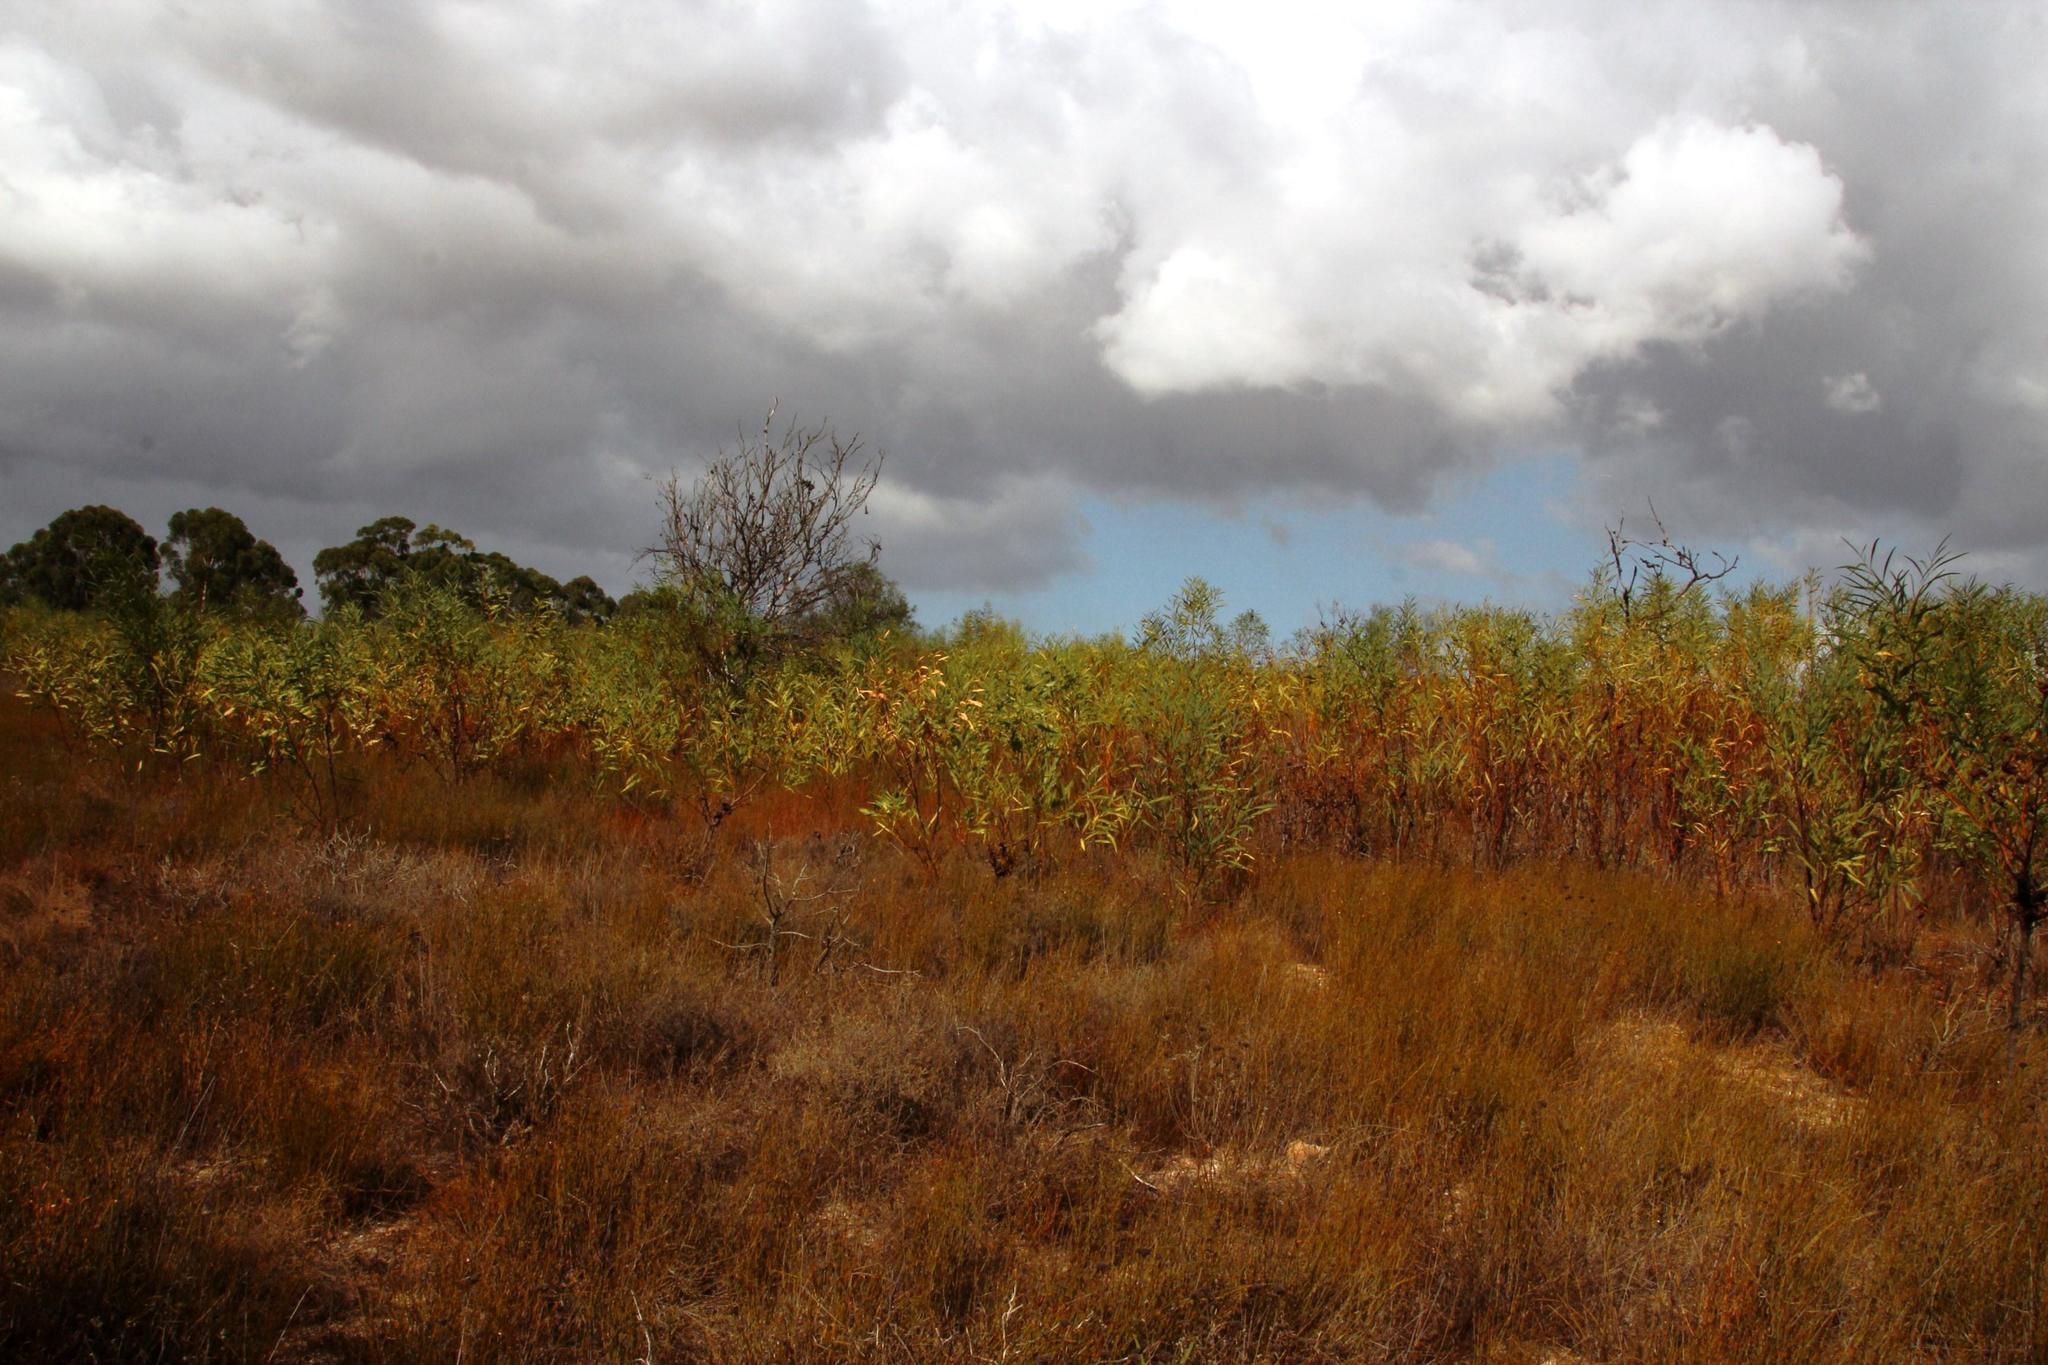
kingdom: Plantae
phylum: Tracheophyta
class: Magnoliopsida
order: Fabales
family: Fabaceae
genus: Acacia
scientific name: Acacia saligna
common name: Orange wattle
